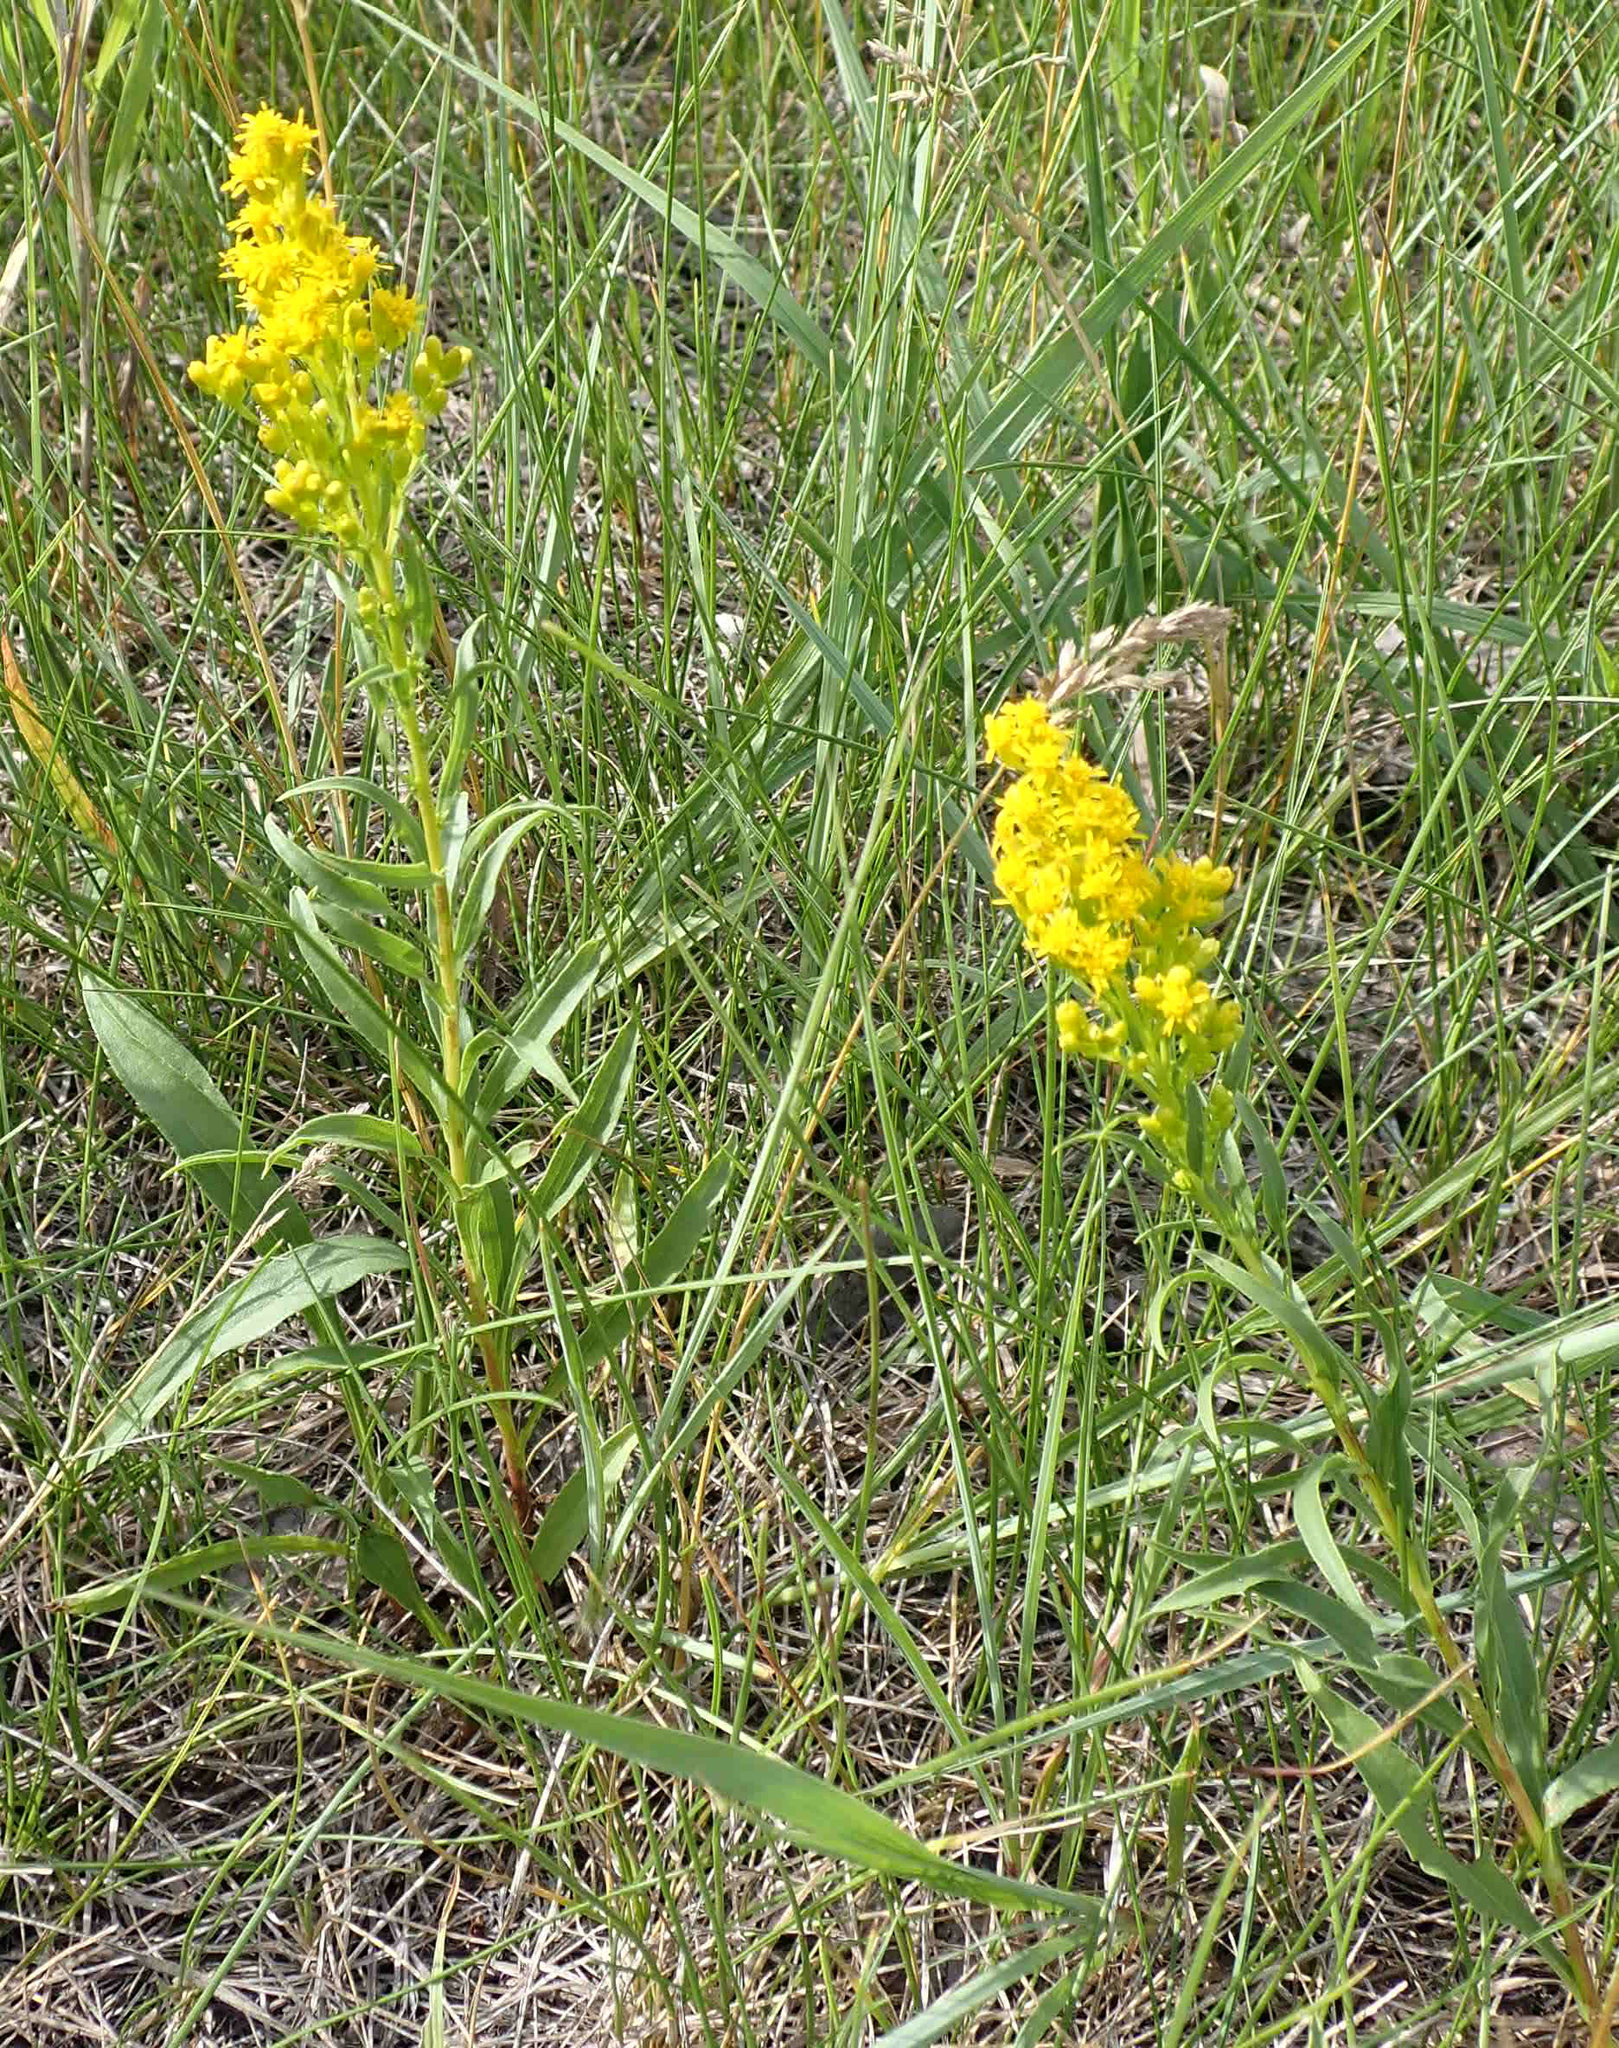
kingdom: Plantae
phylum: Tracheophyta
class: Magnoliopsida
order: Asterales
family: Asteraceae
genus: Solidago
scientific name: Solidago missouriensis
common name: Prairie goldenrod
